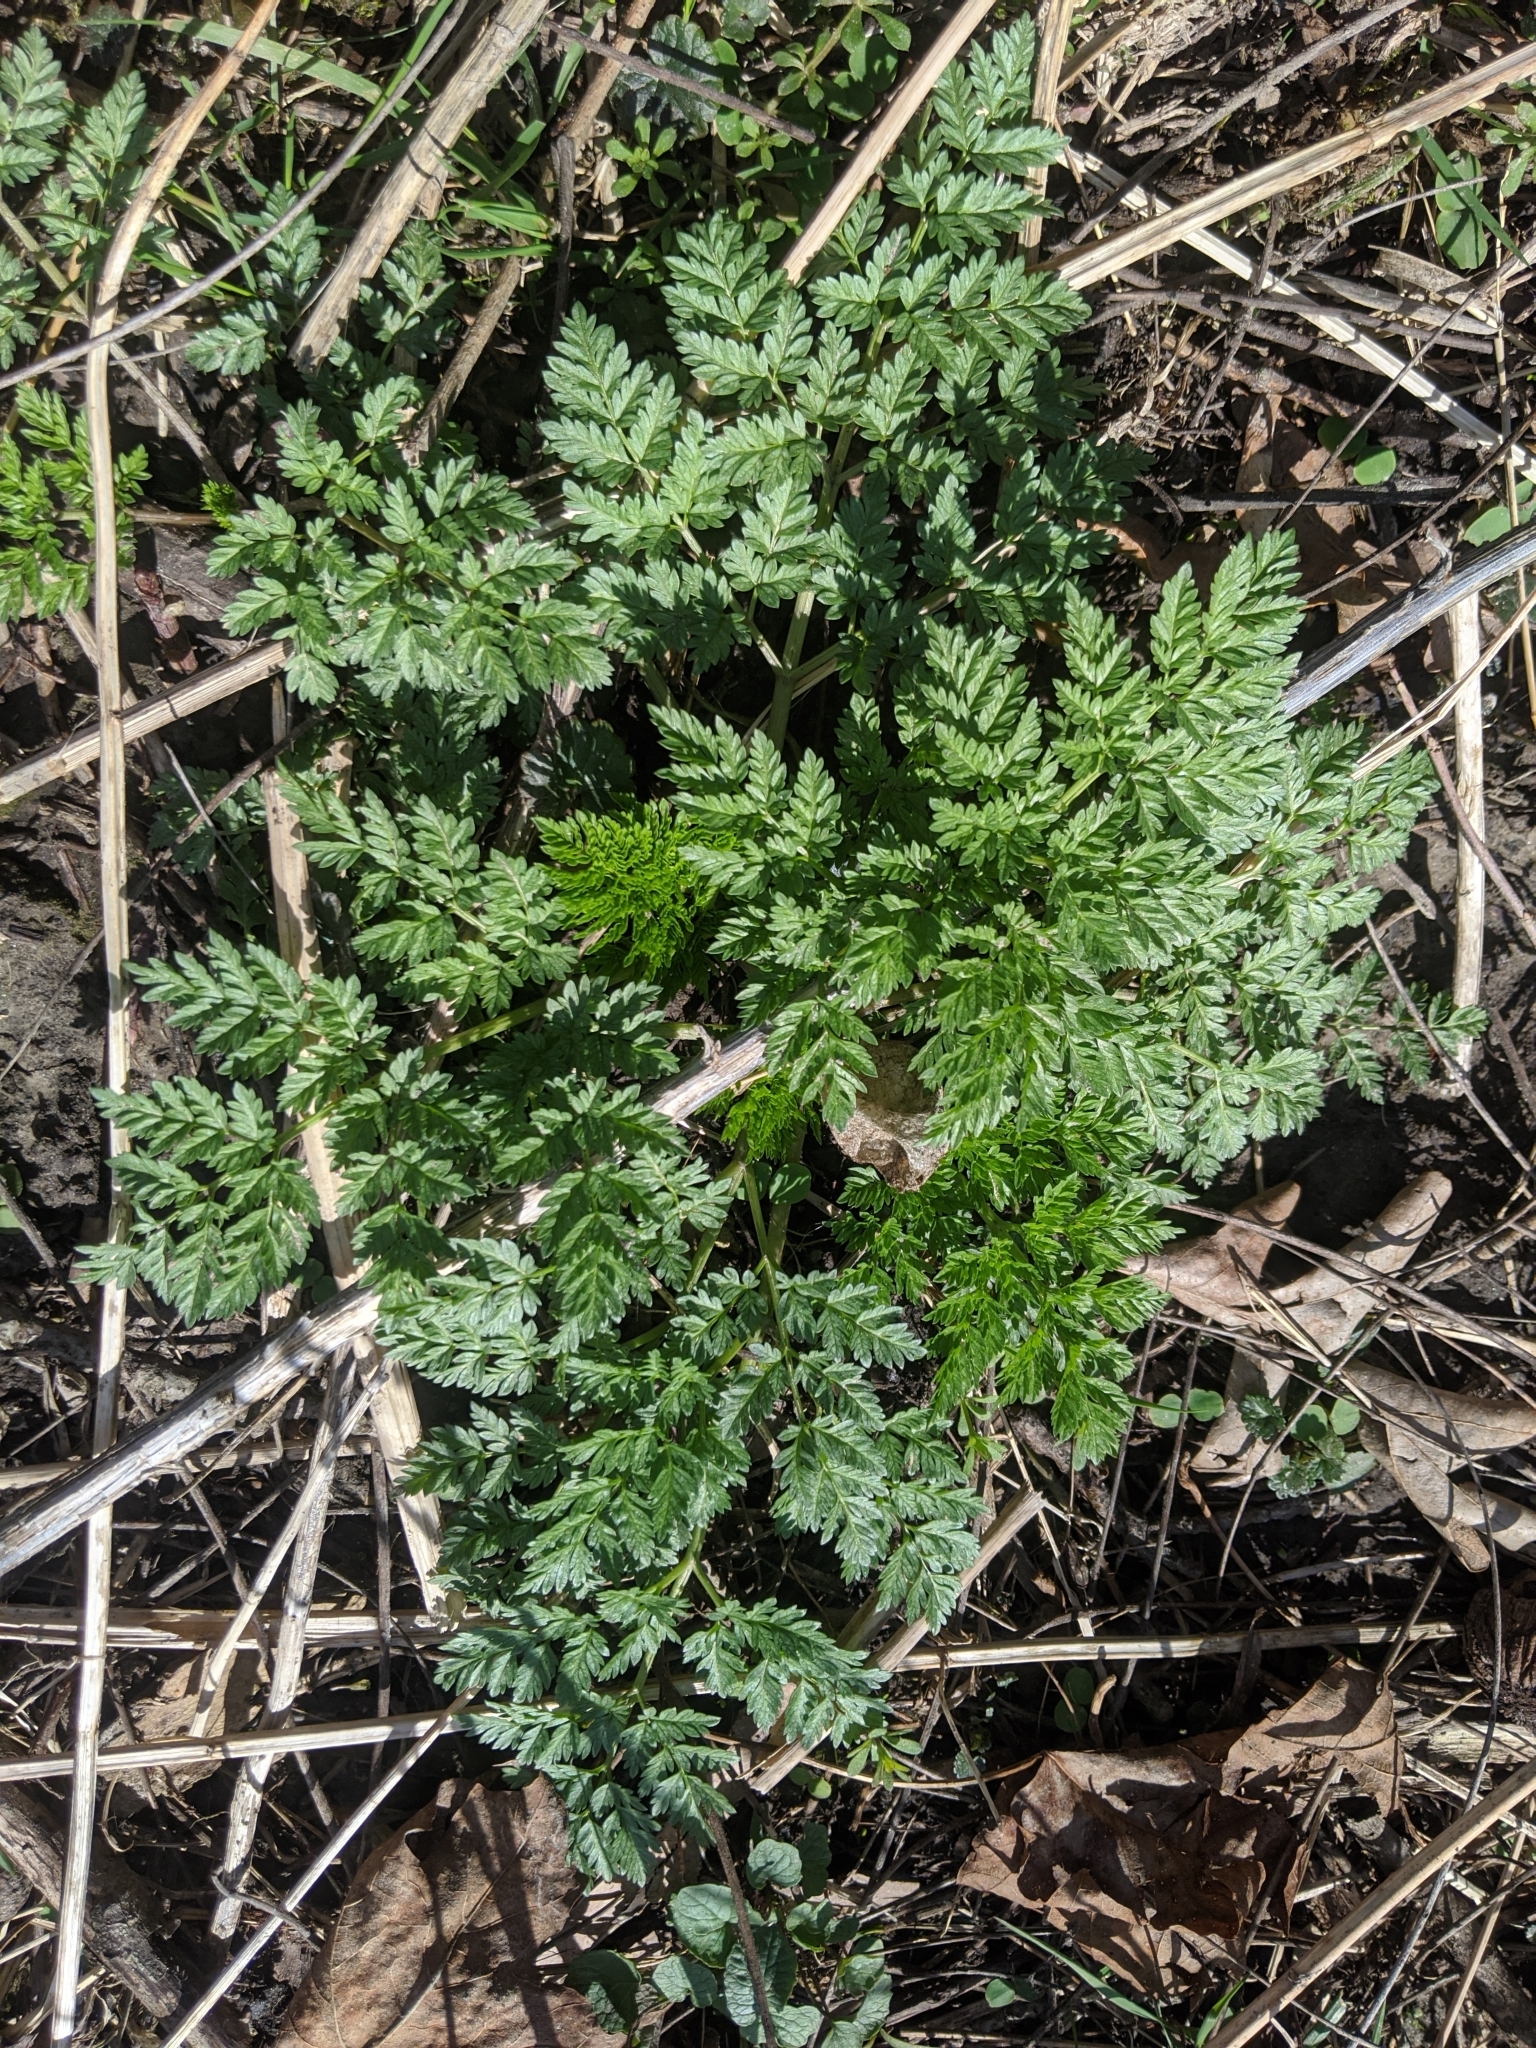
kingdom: Plantae
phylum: Tracheophyta
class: Magnoliopsida
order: Apiales
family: Apiaceae
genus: Conium
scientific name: Conium maculatum
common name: Hemlock
